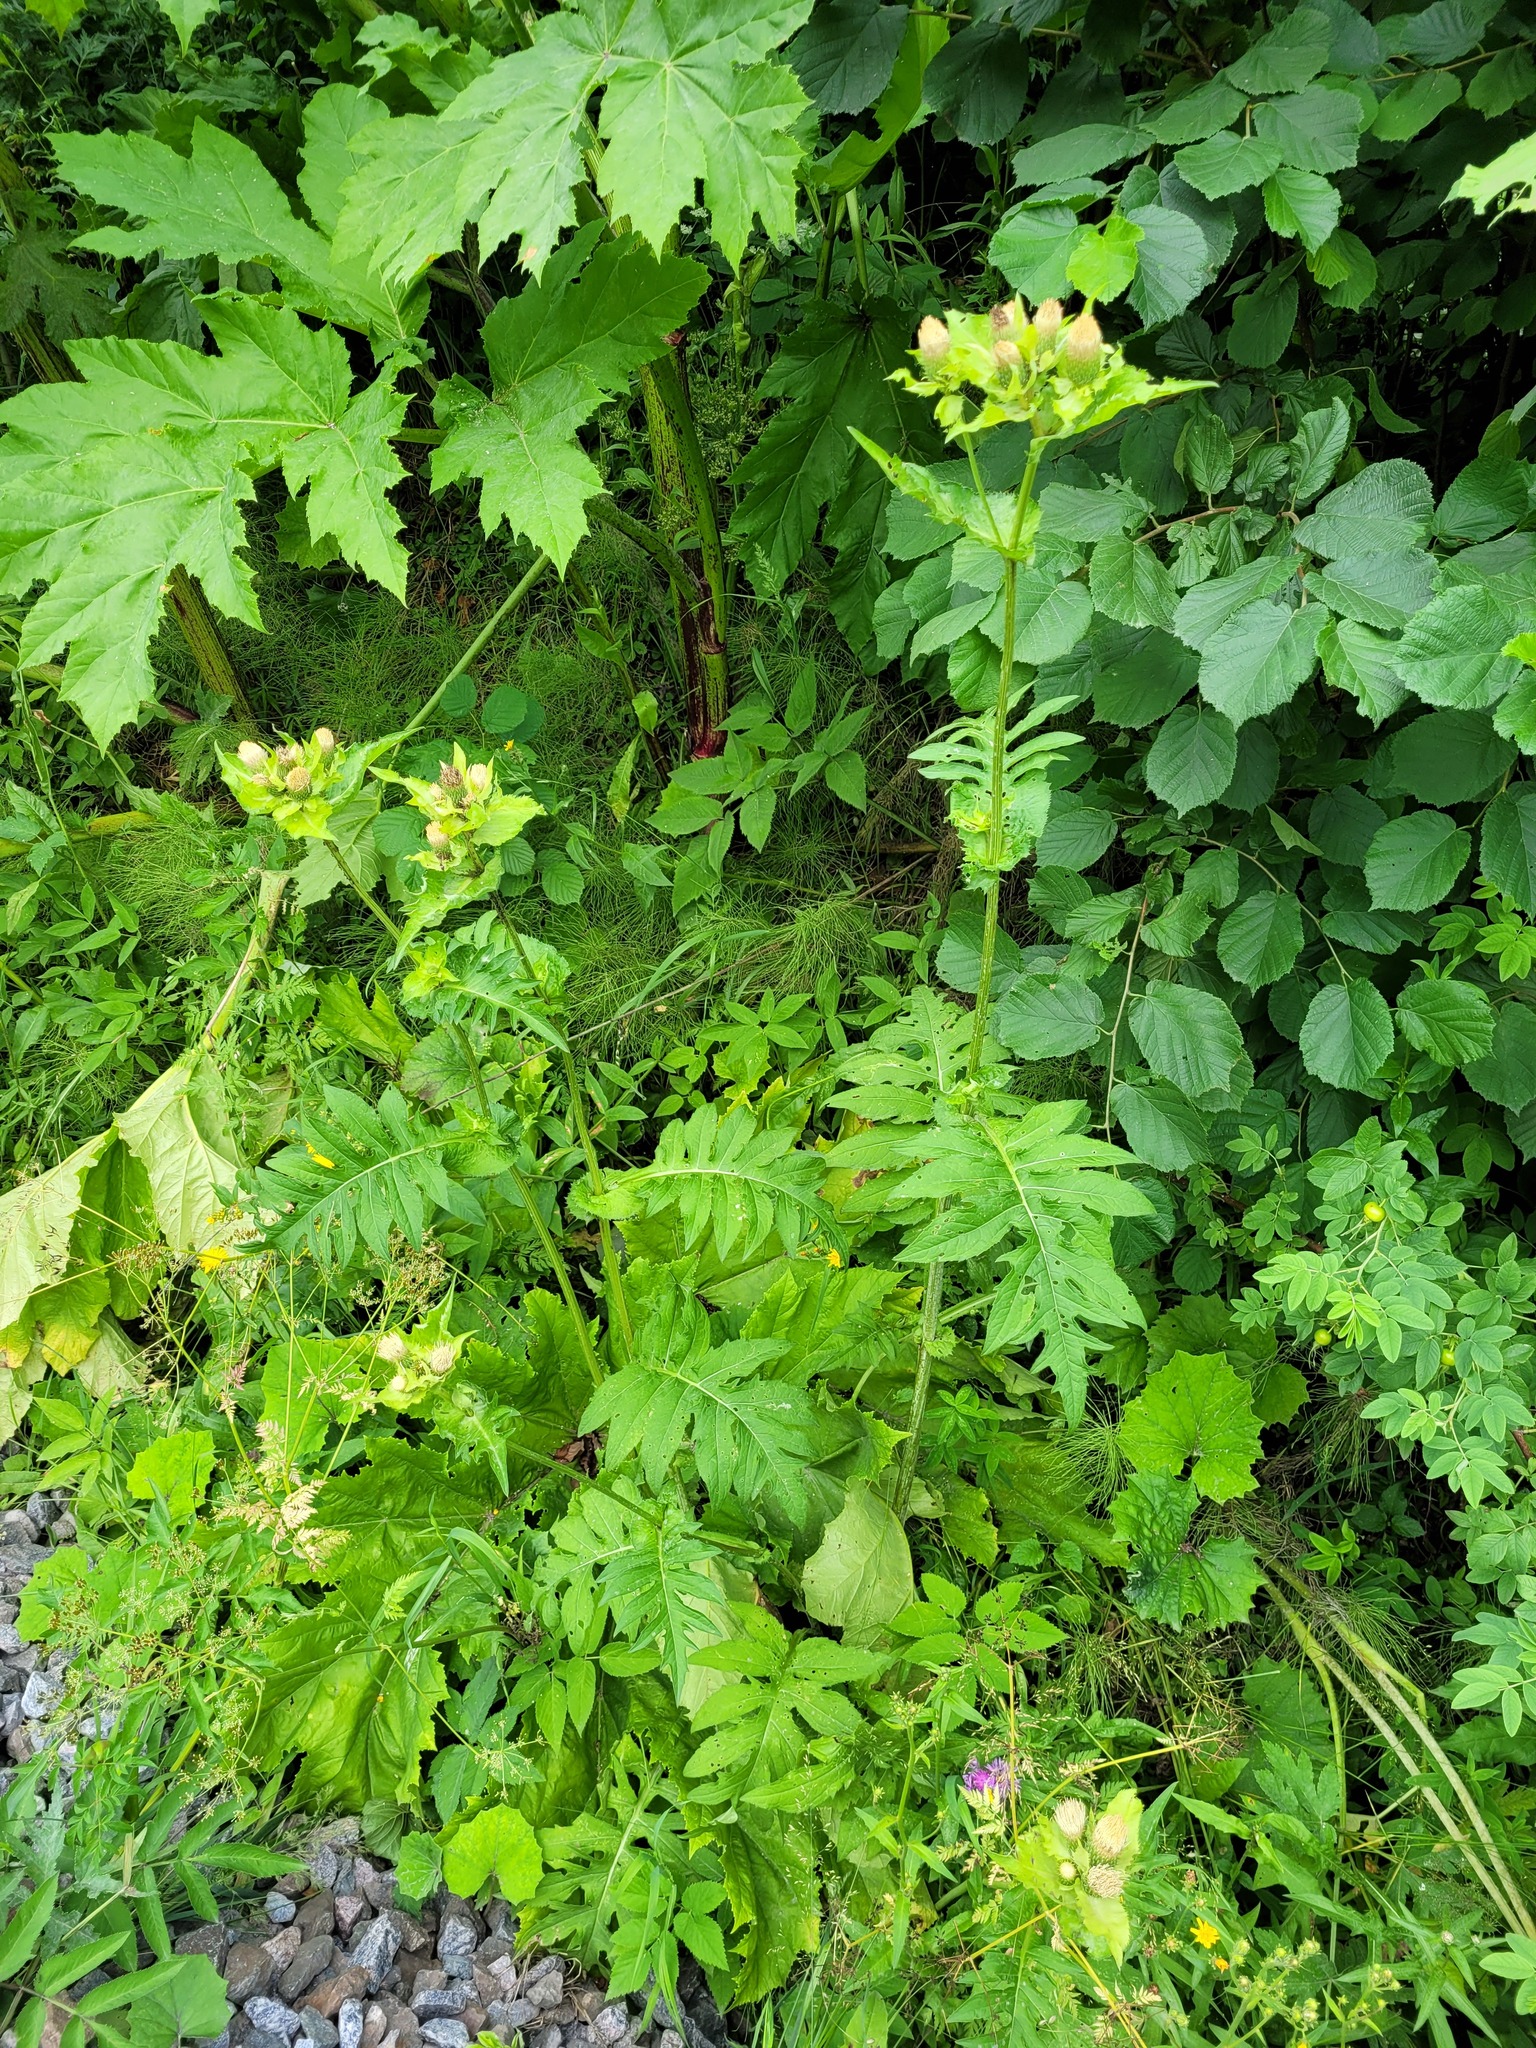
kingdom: Plantae
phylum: Tracheophyta
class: Magnoliopsida
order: Asterales
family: Asteraceae
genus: Cirsium
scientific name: Cirsium oleraceum
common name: Cabbage thistle
